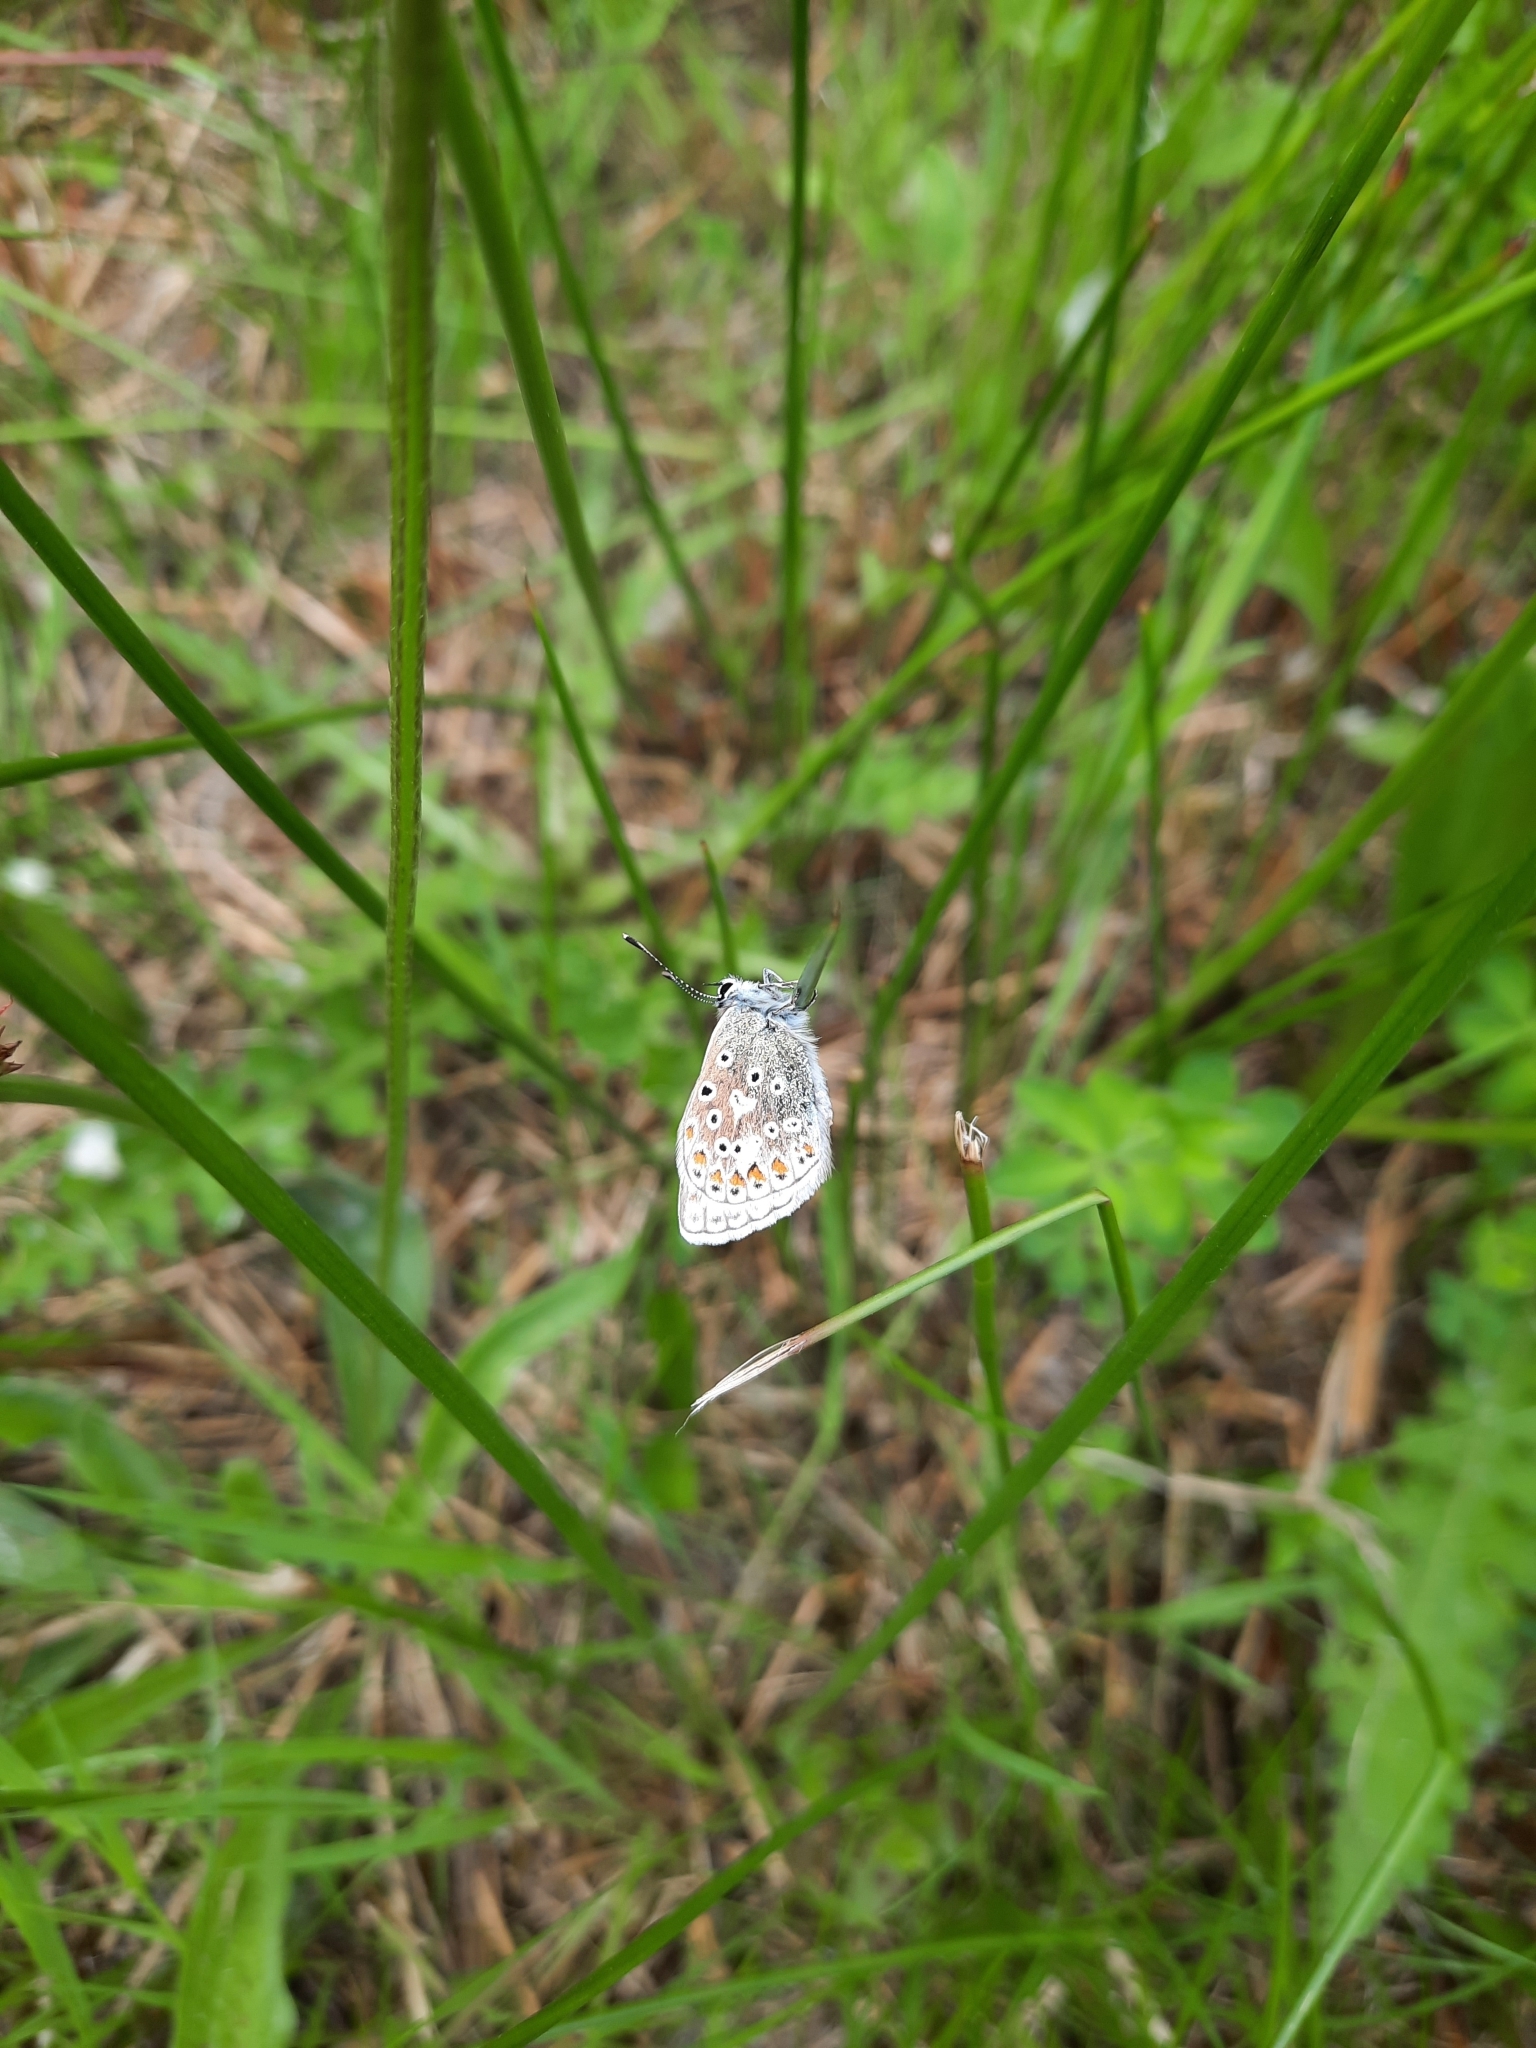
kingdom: Animalia
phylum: Arthropoda
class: Insecta
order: Lepidoptera
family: Lycaenidae
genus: Polyommatus
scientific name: Polyommatus icarus
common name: Common blue
